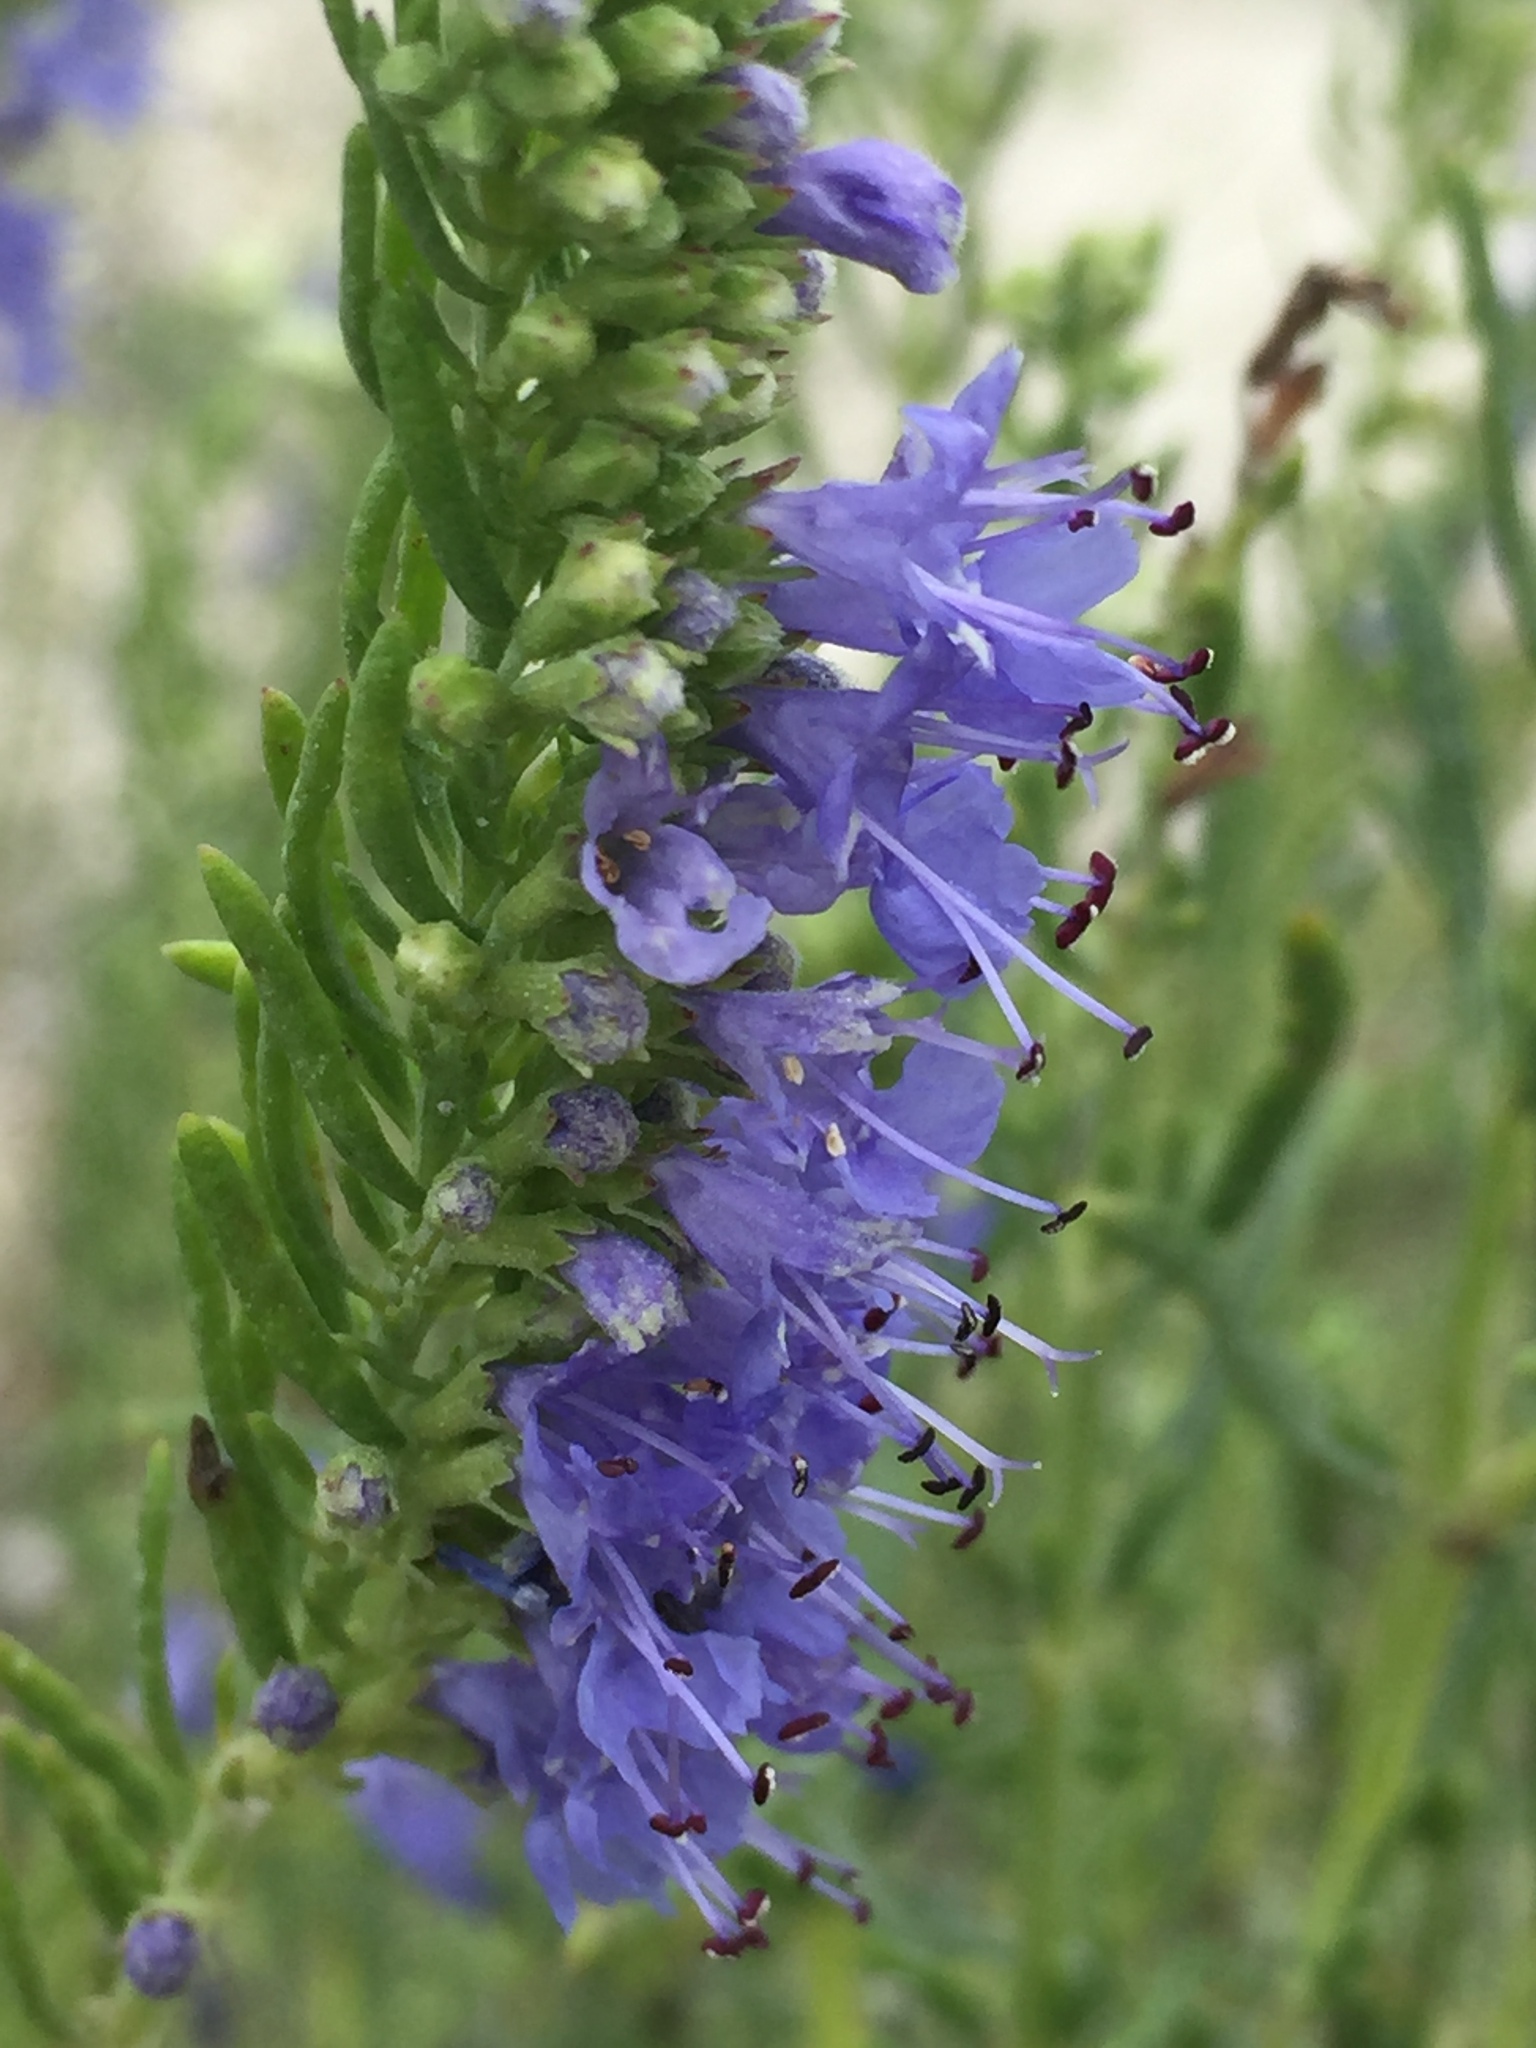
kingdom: Plantae
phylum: Tracheophyta
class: Magnoliopsida
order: Lamiales
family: Lamiaceae
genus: Hyssopus
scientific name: Hyssopus officinalis
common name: Hyssop
